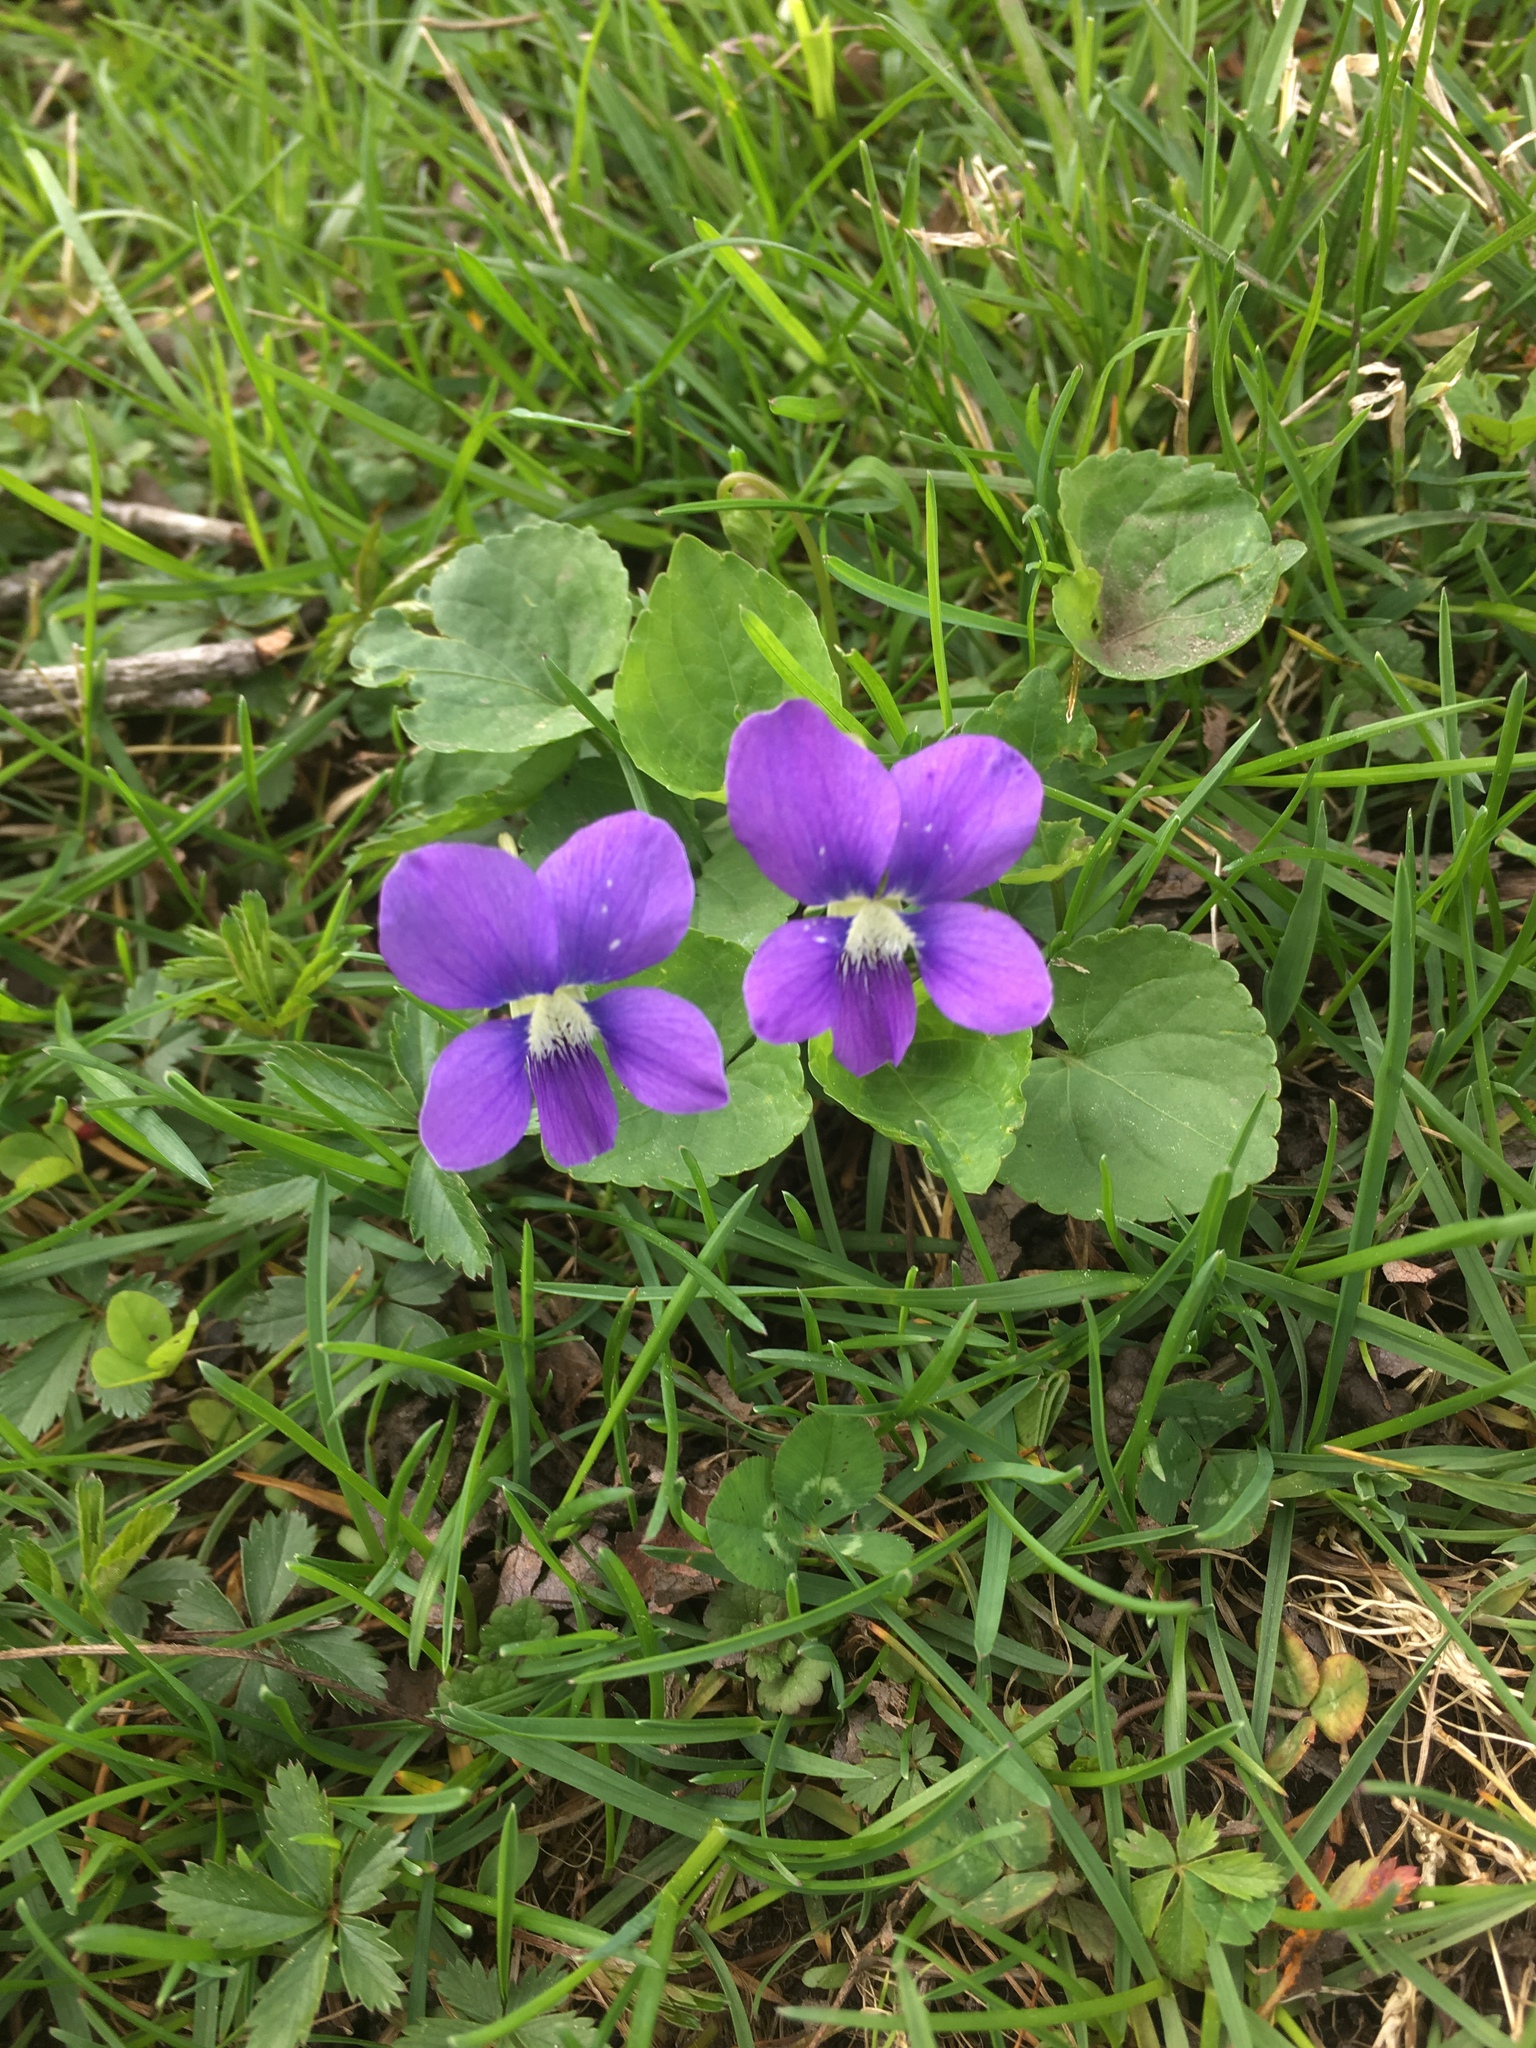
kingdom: Plantae
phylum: Tracheophyta
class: Magnoliopsida
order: Malpighiales
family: Violaceae
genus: Viola
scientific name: Viola sororia
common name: Dooryard violet
